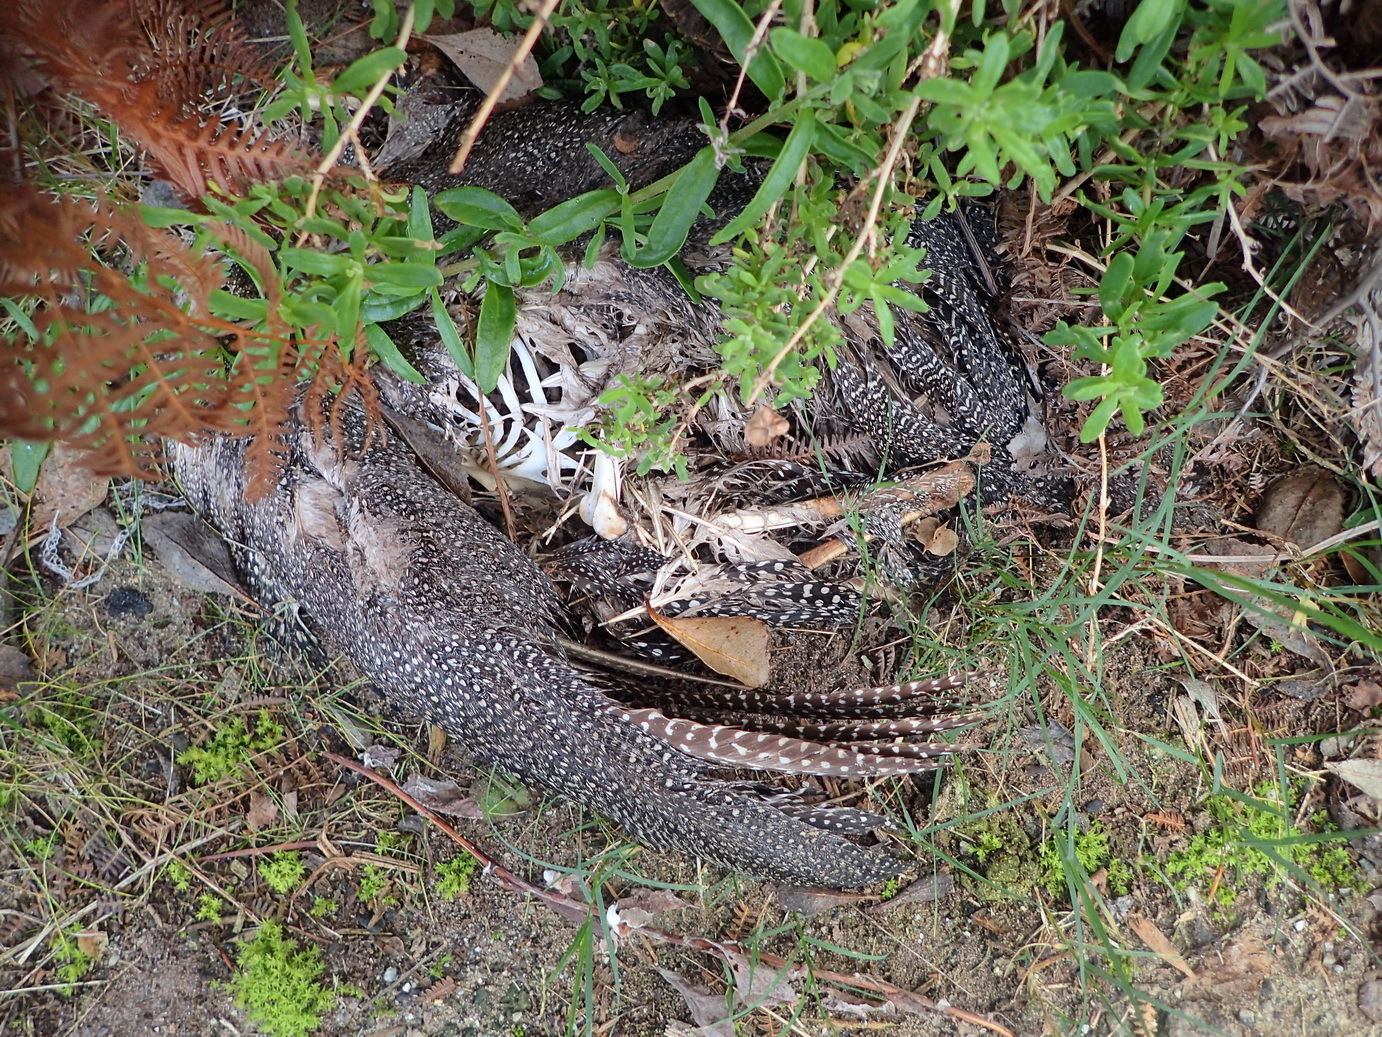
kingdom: Animalia
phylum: Chordata
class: Aves
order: Galliformes
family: Numididae
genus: Numida
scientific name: Numida meleagris
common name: Helmeted guineafowl
